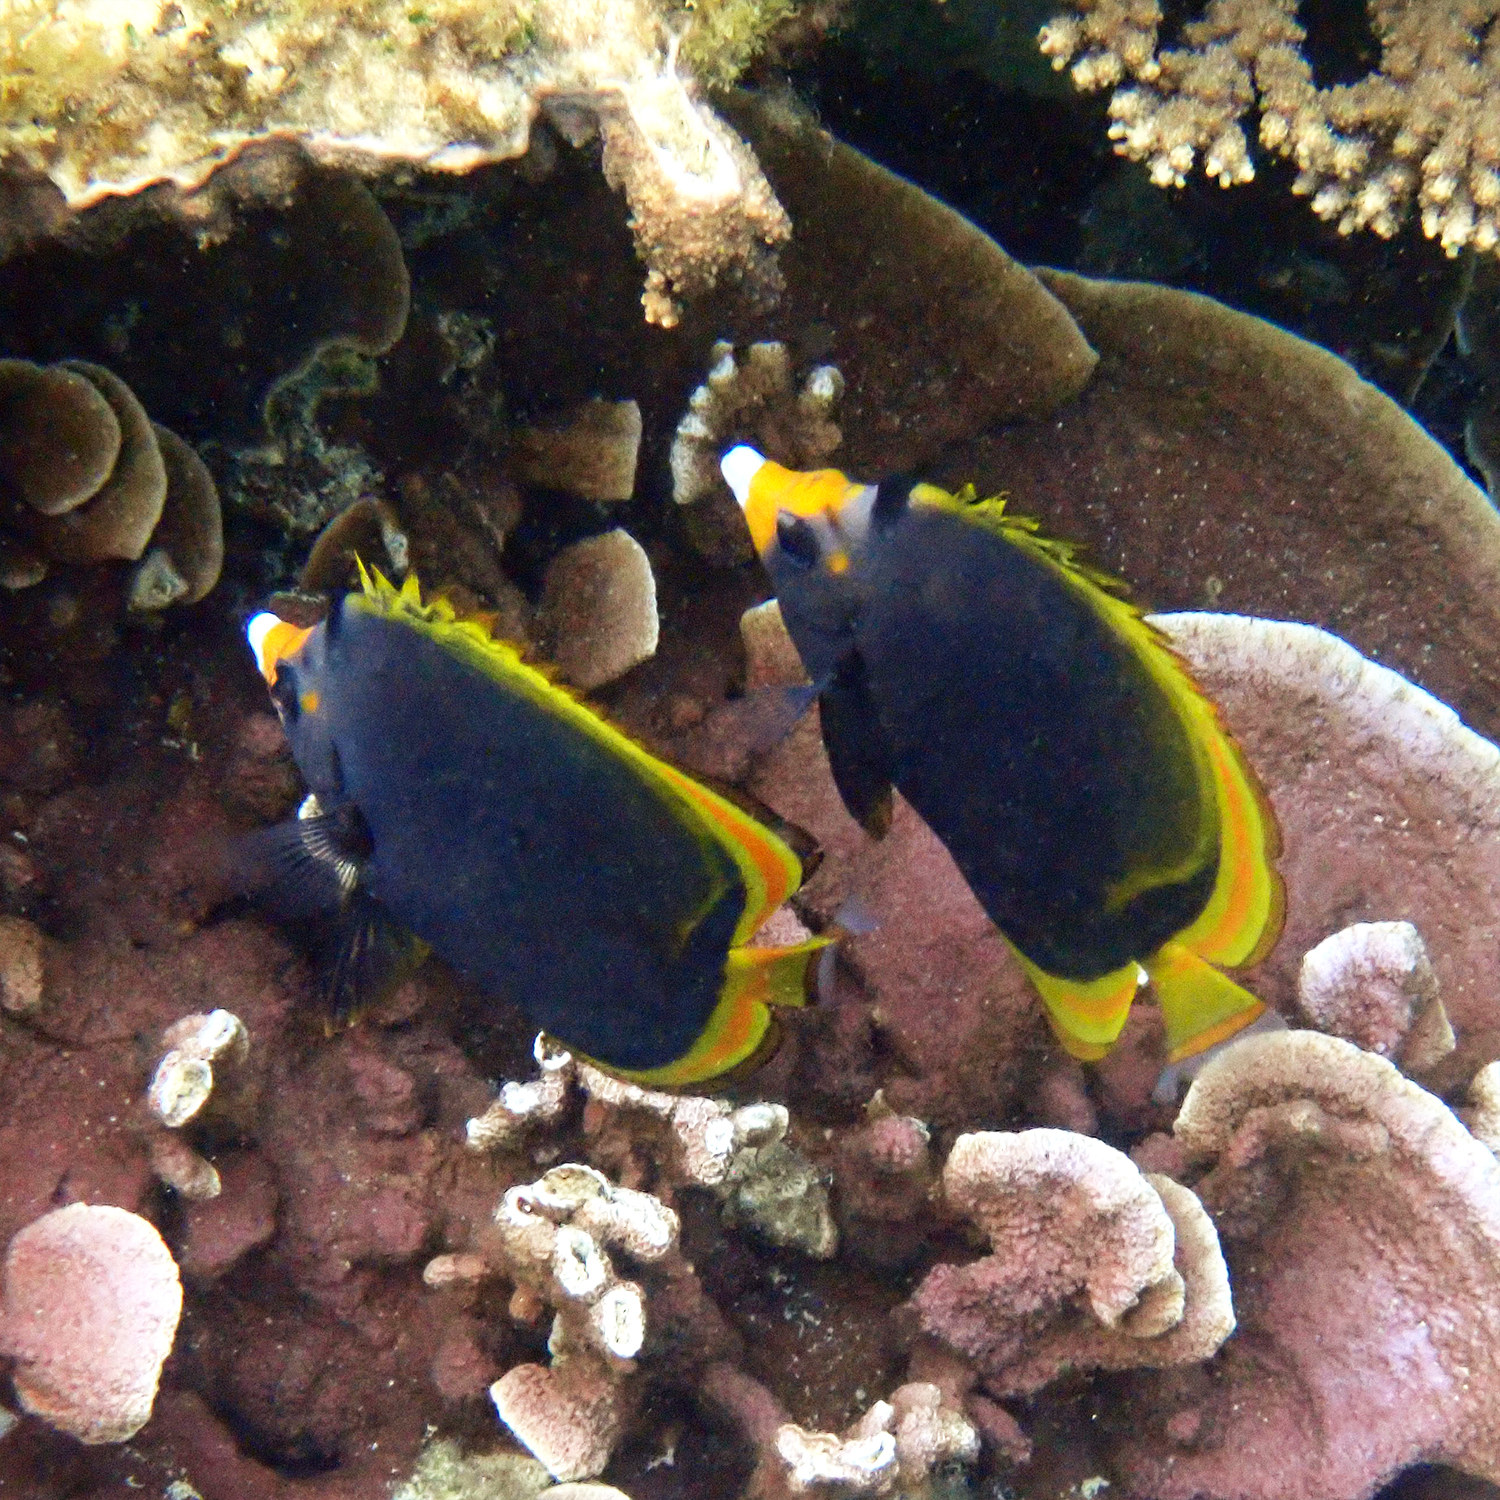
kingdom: Animalia
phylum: Chordata
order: Perciformes
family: Chaetodontidae
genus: Chaetodon
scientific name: Chaetodon flavirostris
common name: Black butterflyfish
